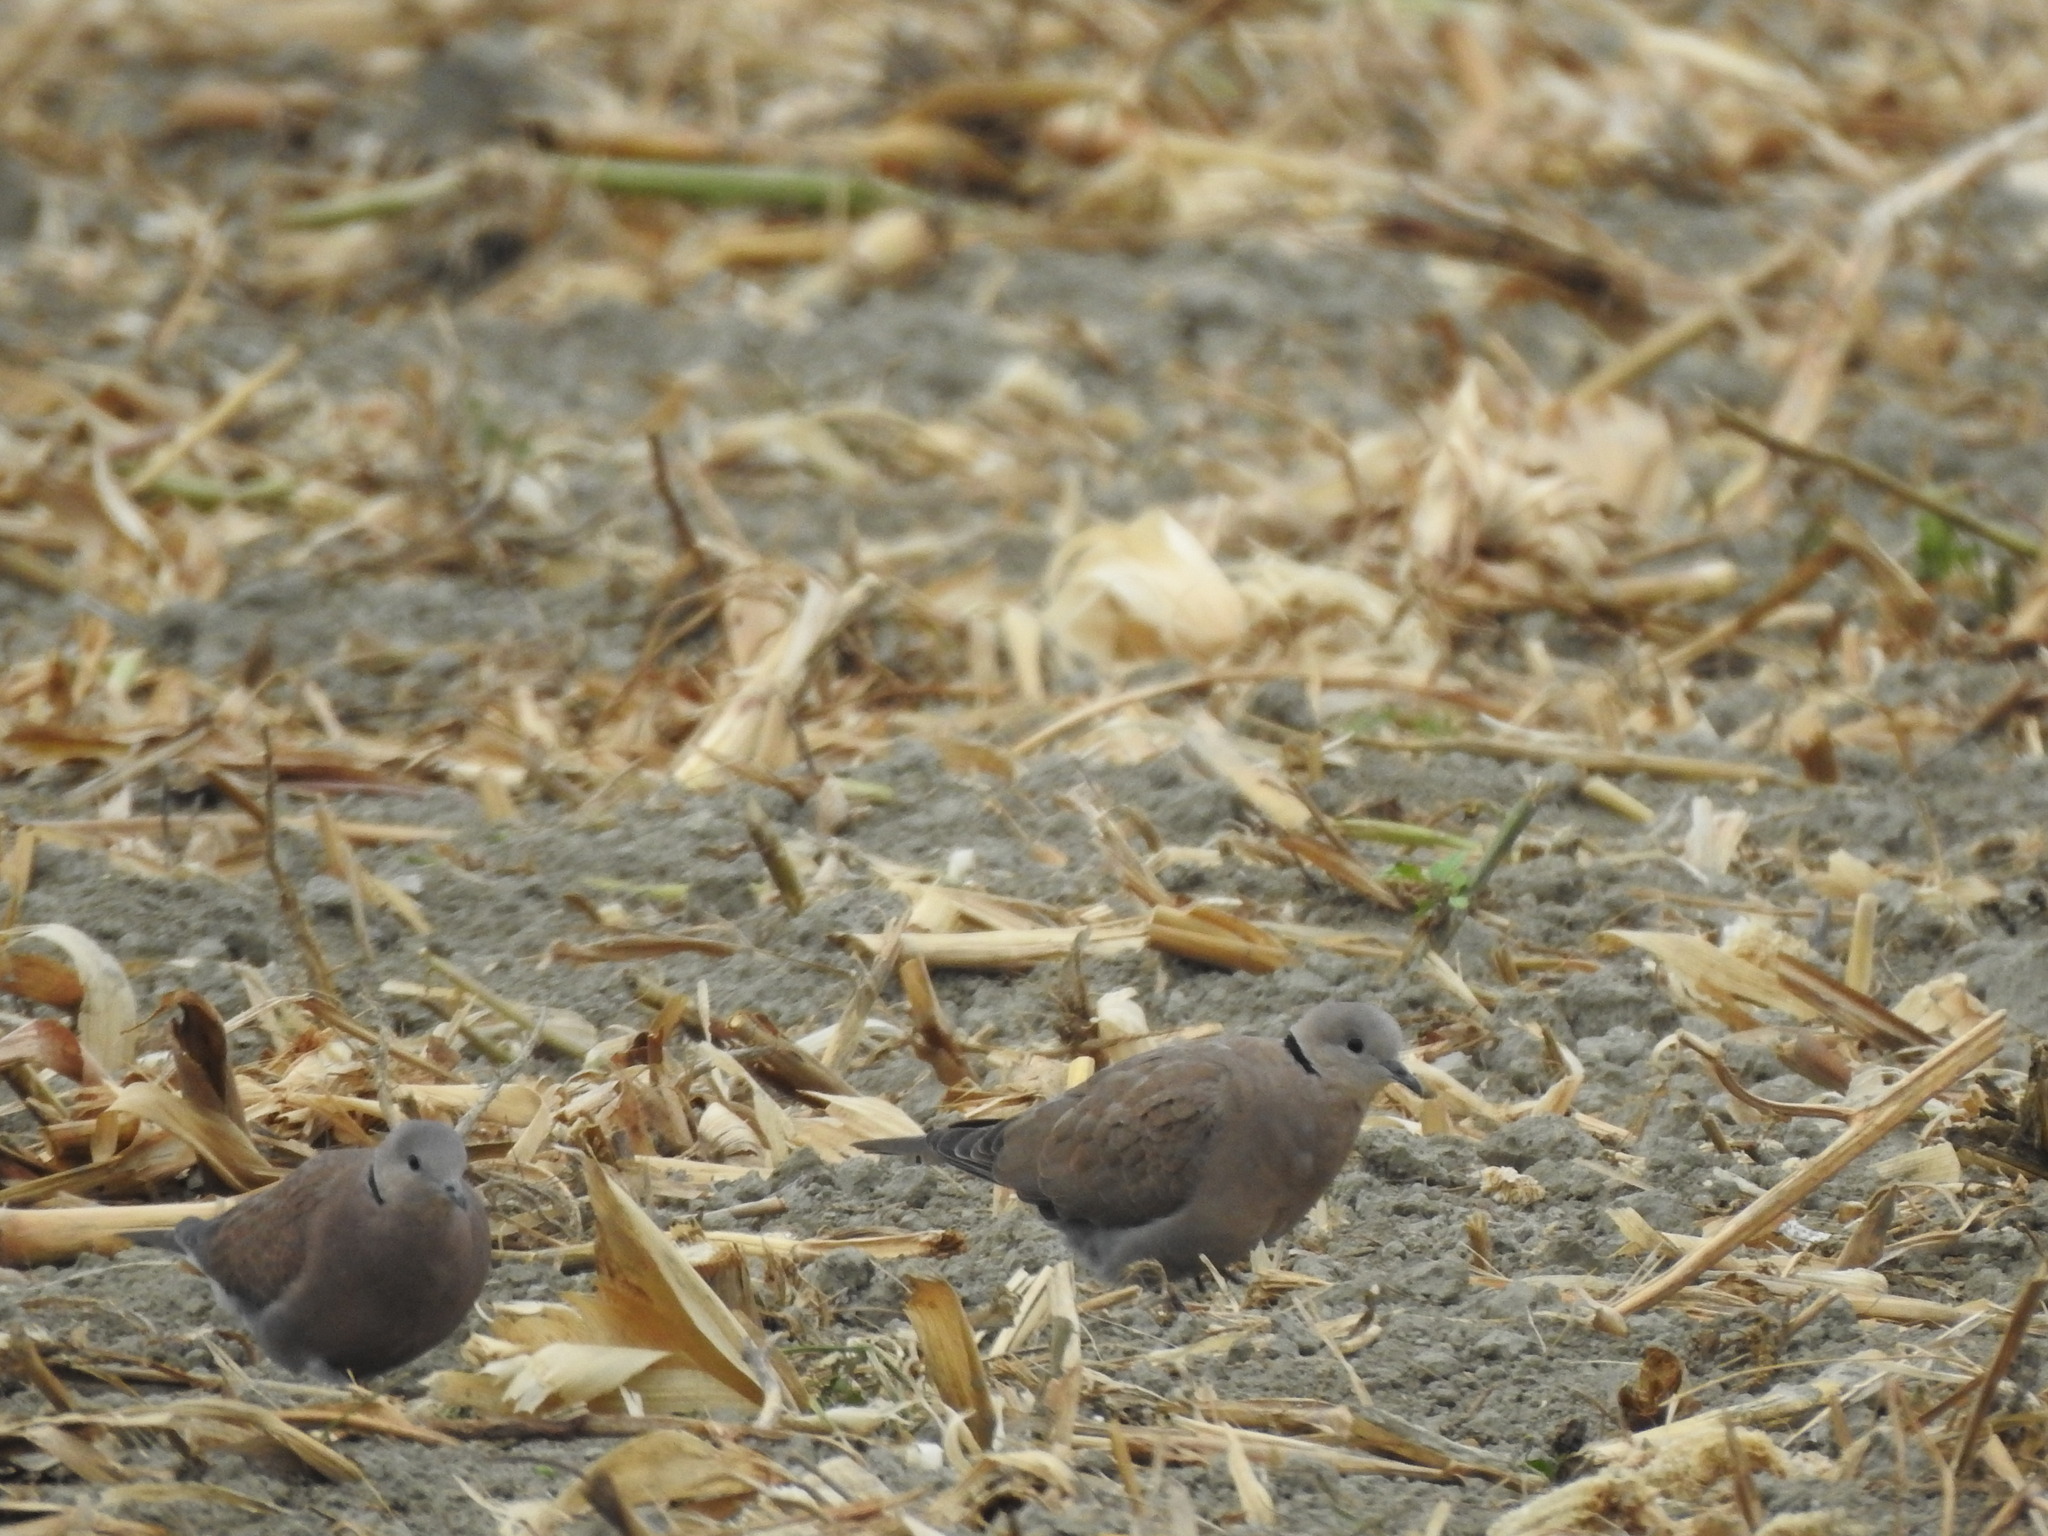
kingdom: Animalia
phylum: Chordata
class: Aves
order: Columbiformes
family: Columbidae
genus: Streptopelia
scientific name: Streptopelia tranquebarica
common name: Red turtle dove
